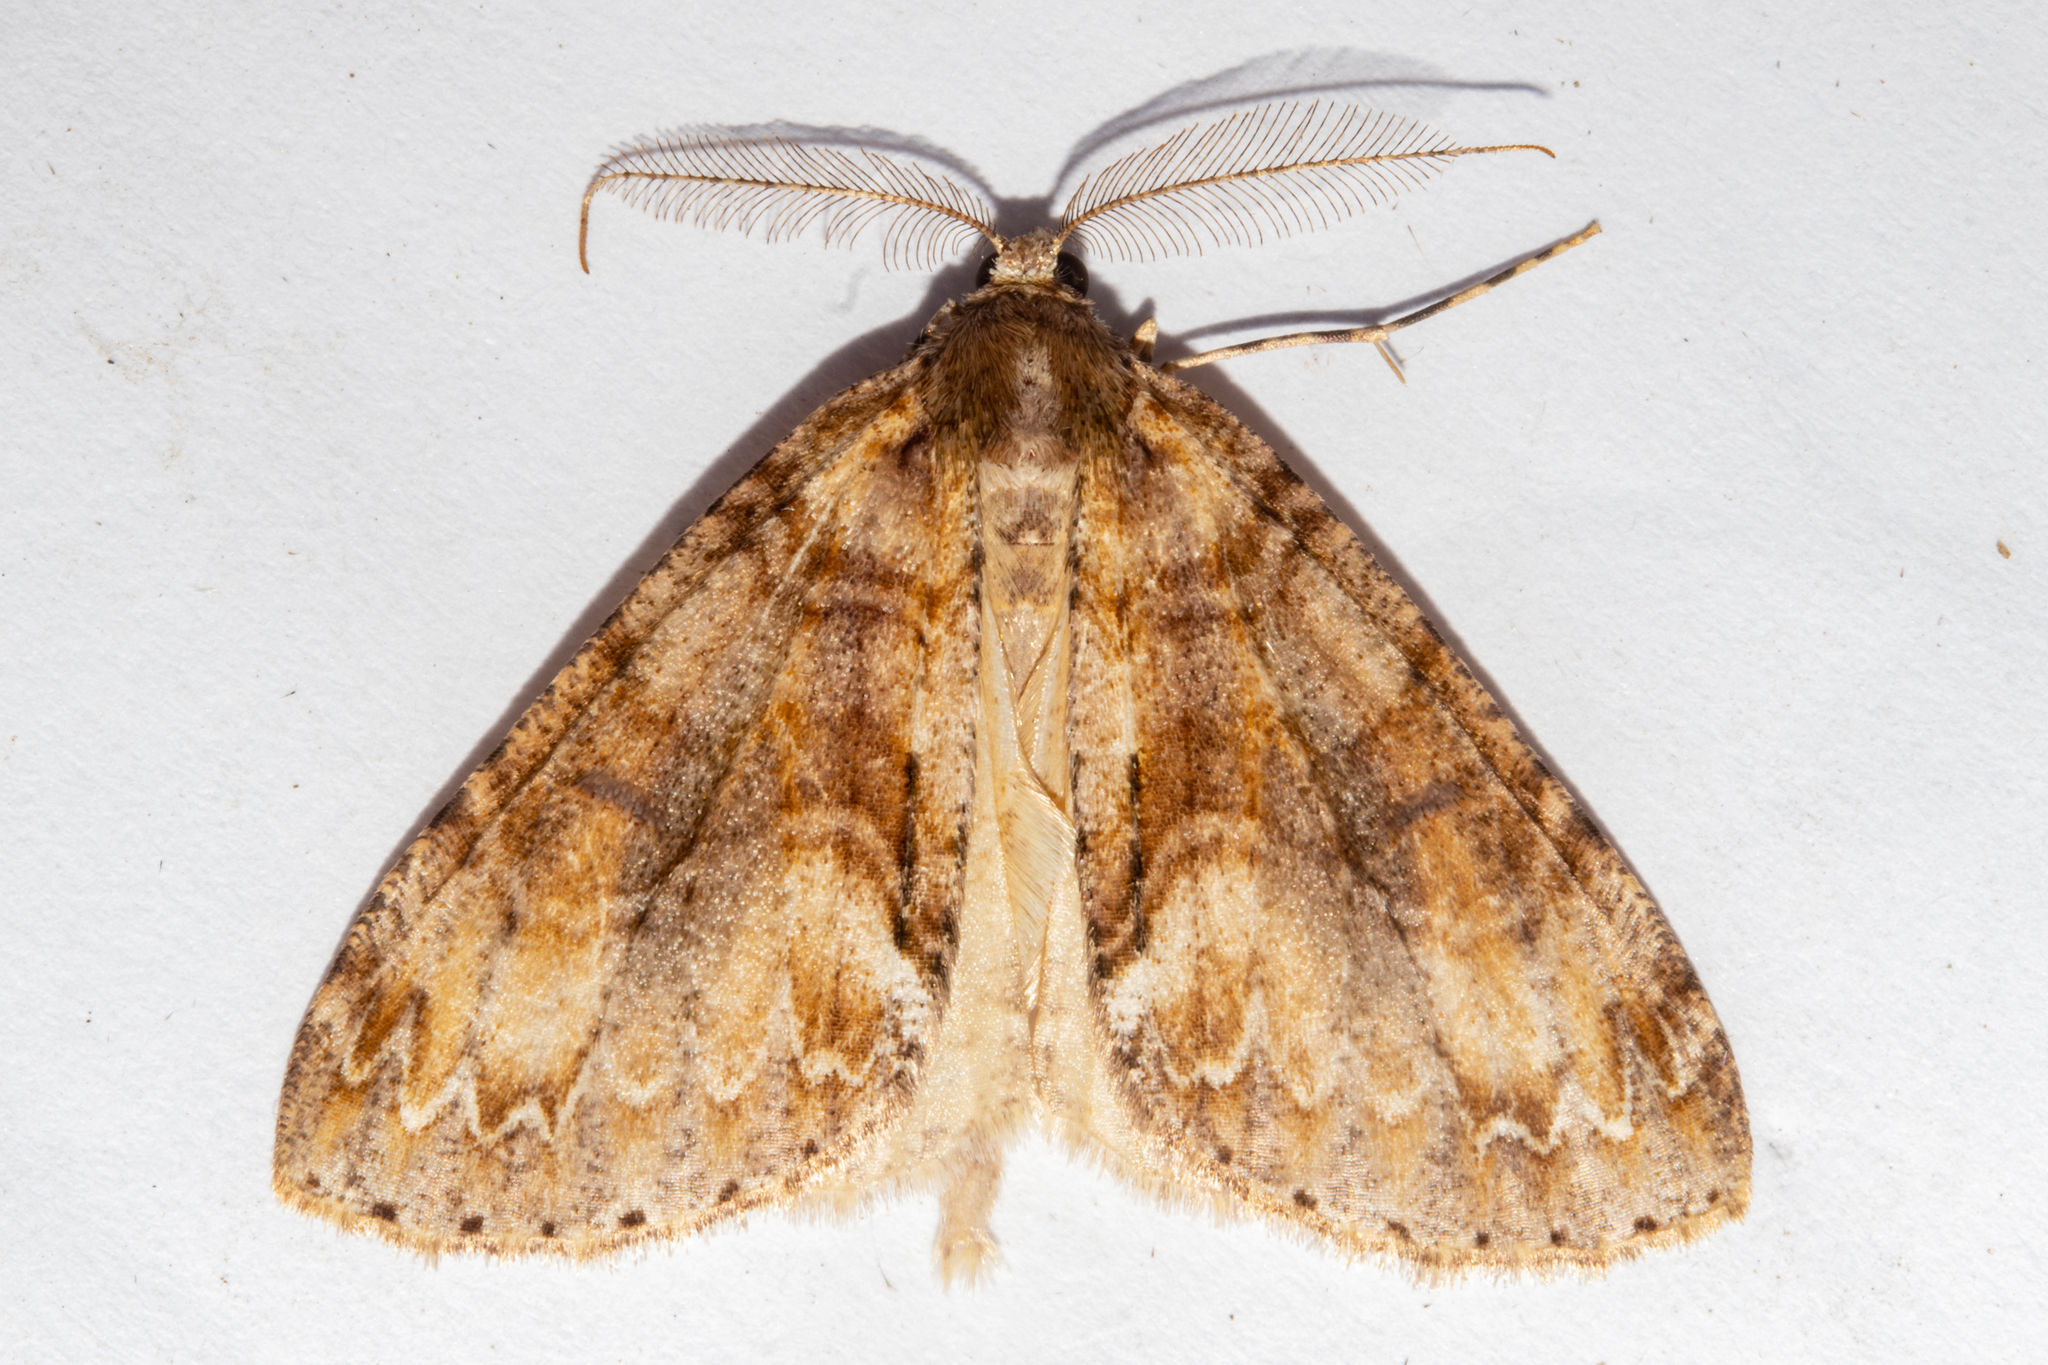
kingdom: Animalia
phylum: Arthropoda
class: Insecta
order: Lepidoptera
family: Geometridae
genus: Pseudocoremia
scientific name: Pseudocoremia suavis
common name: Common forest looper
